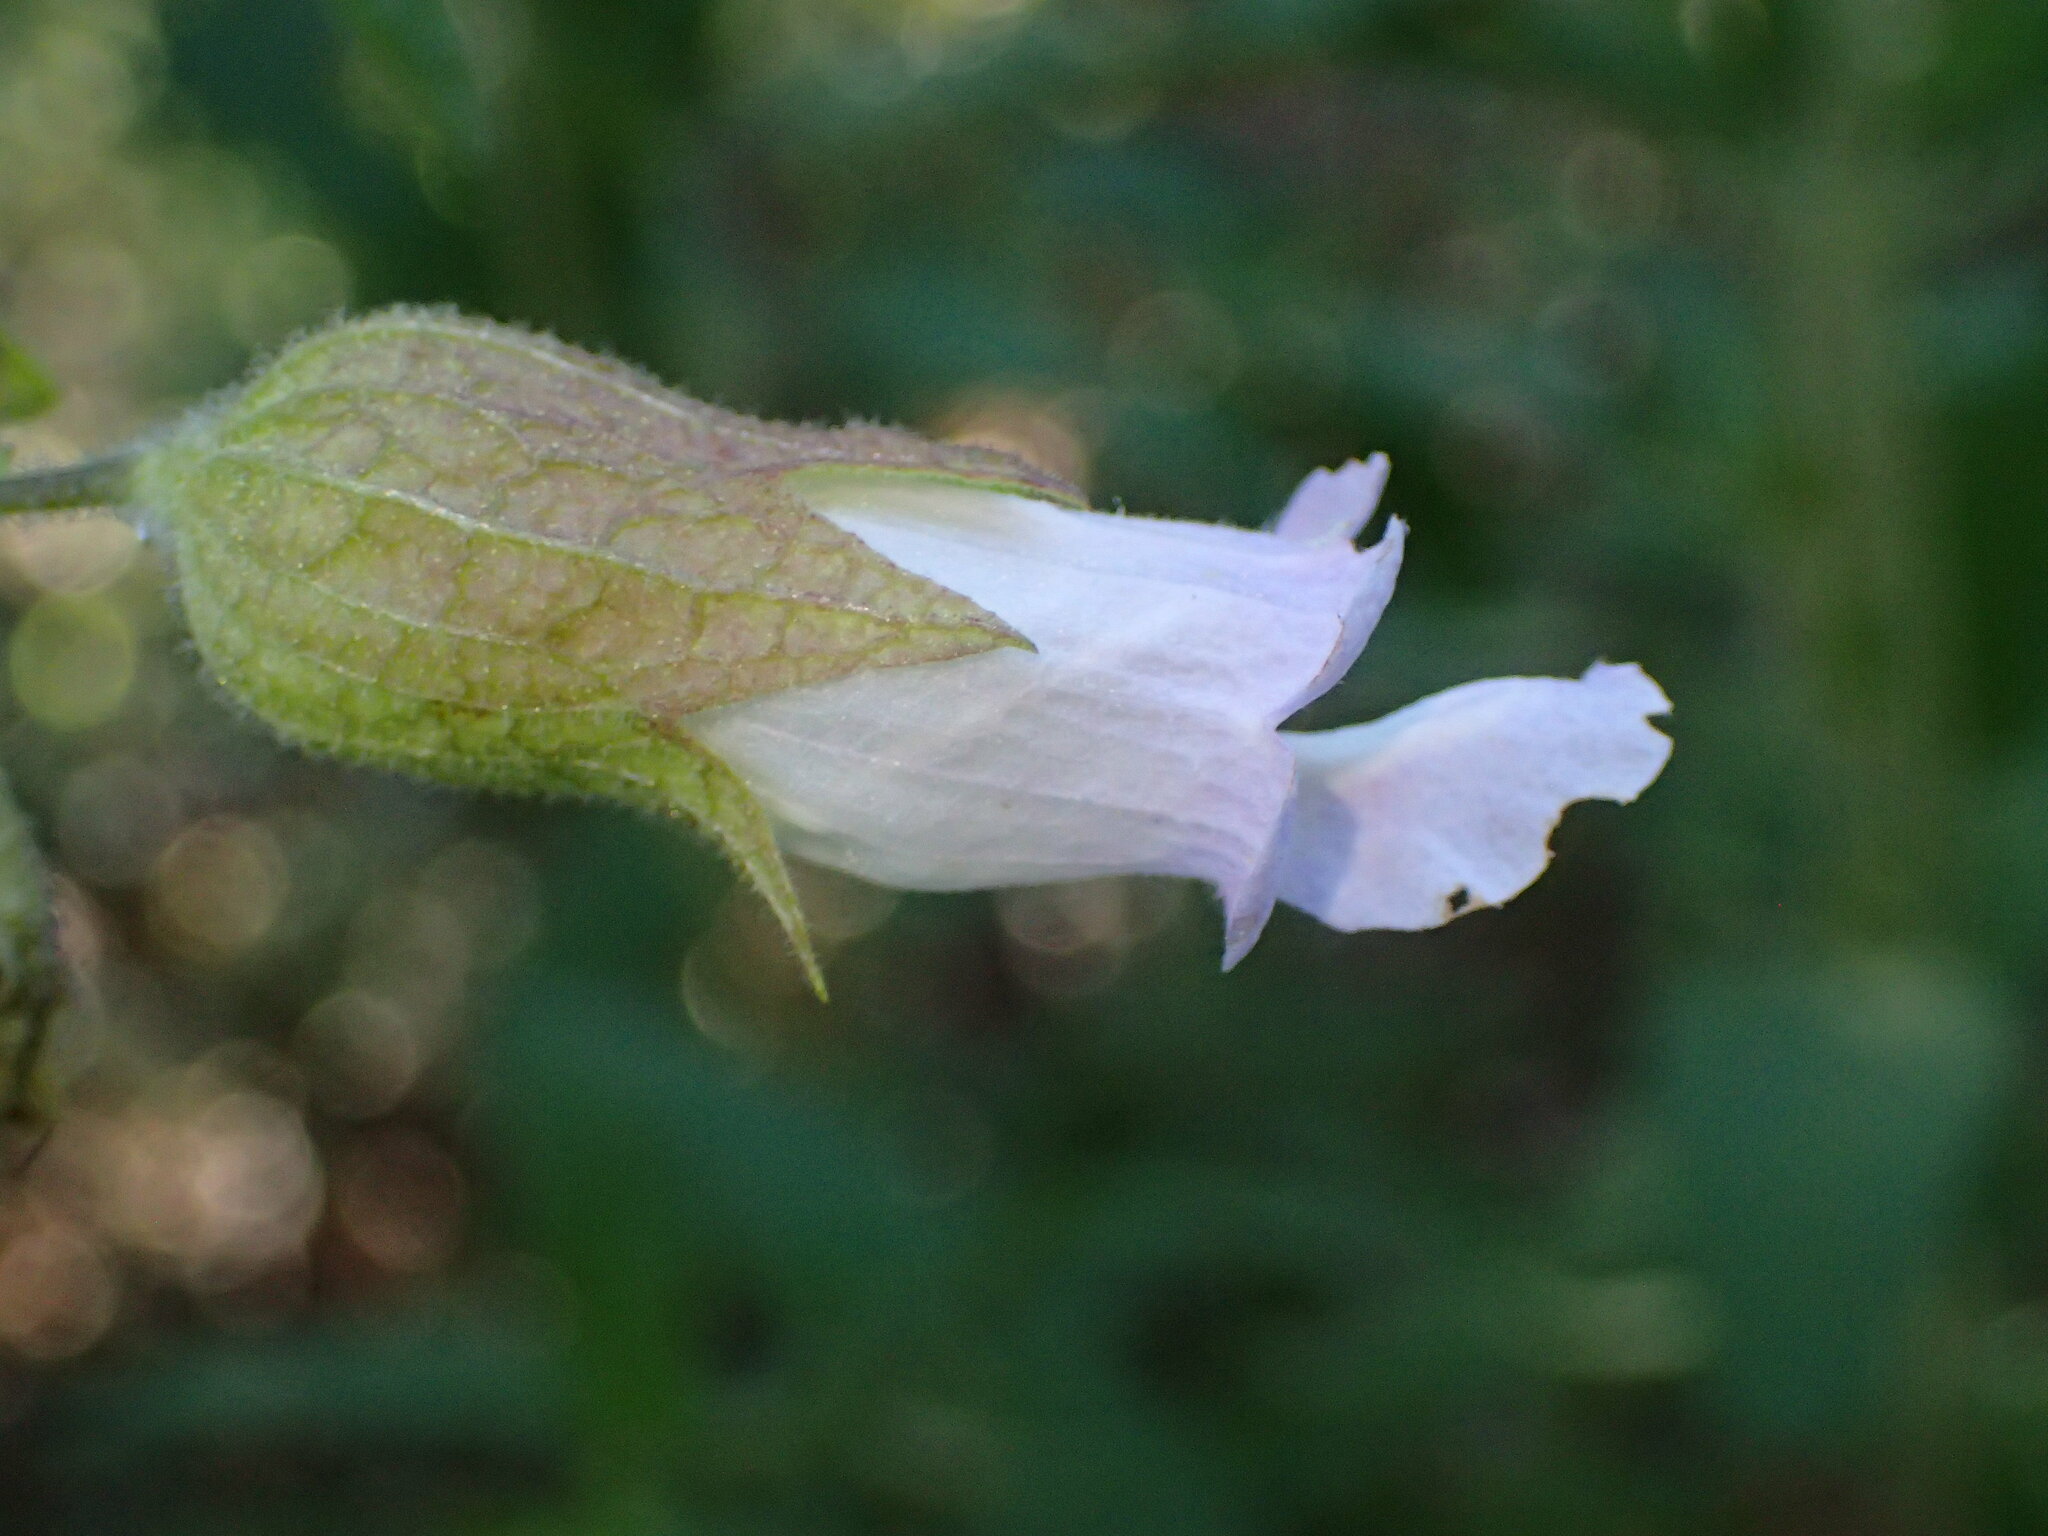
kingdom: Plantae
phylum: Tracheophyta
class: Magnoliopsida
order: Lamiales
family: Lamiaceae
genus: Lepechinia
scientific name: Lepechinia calycina
